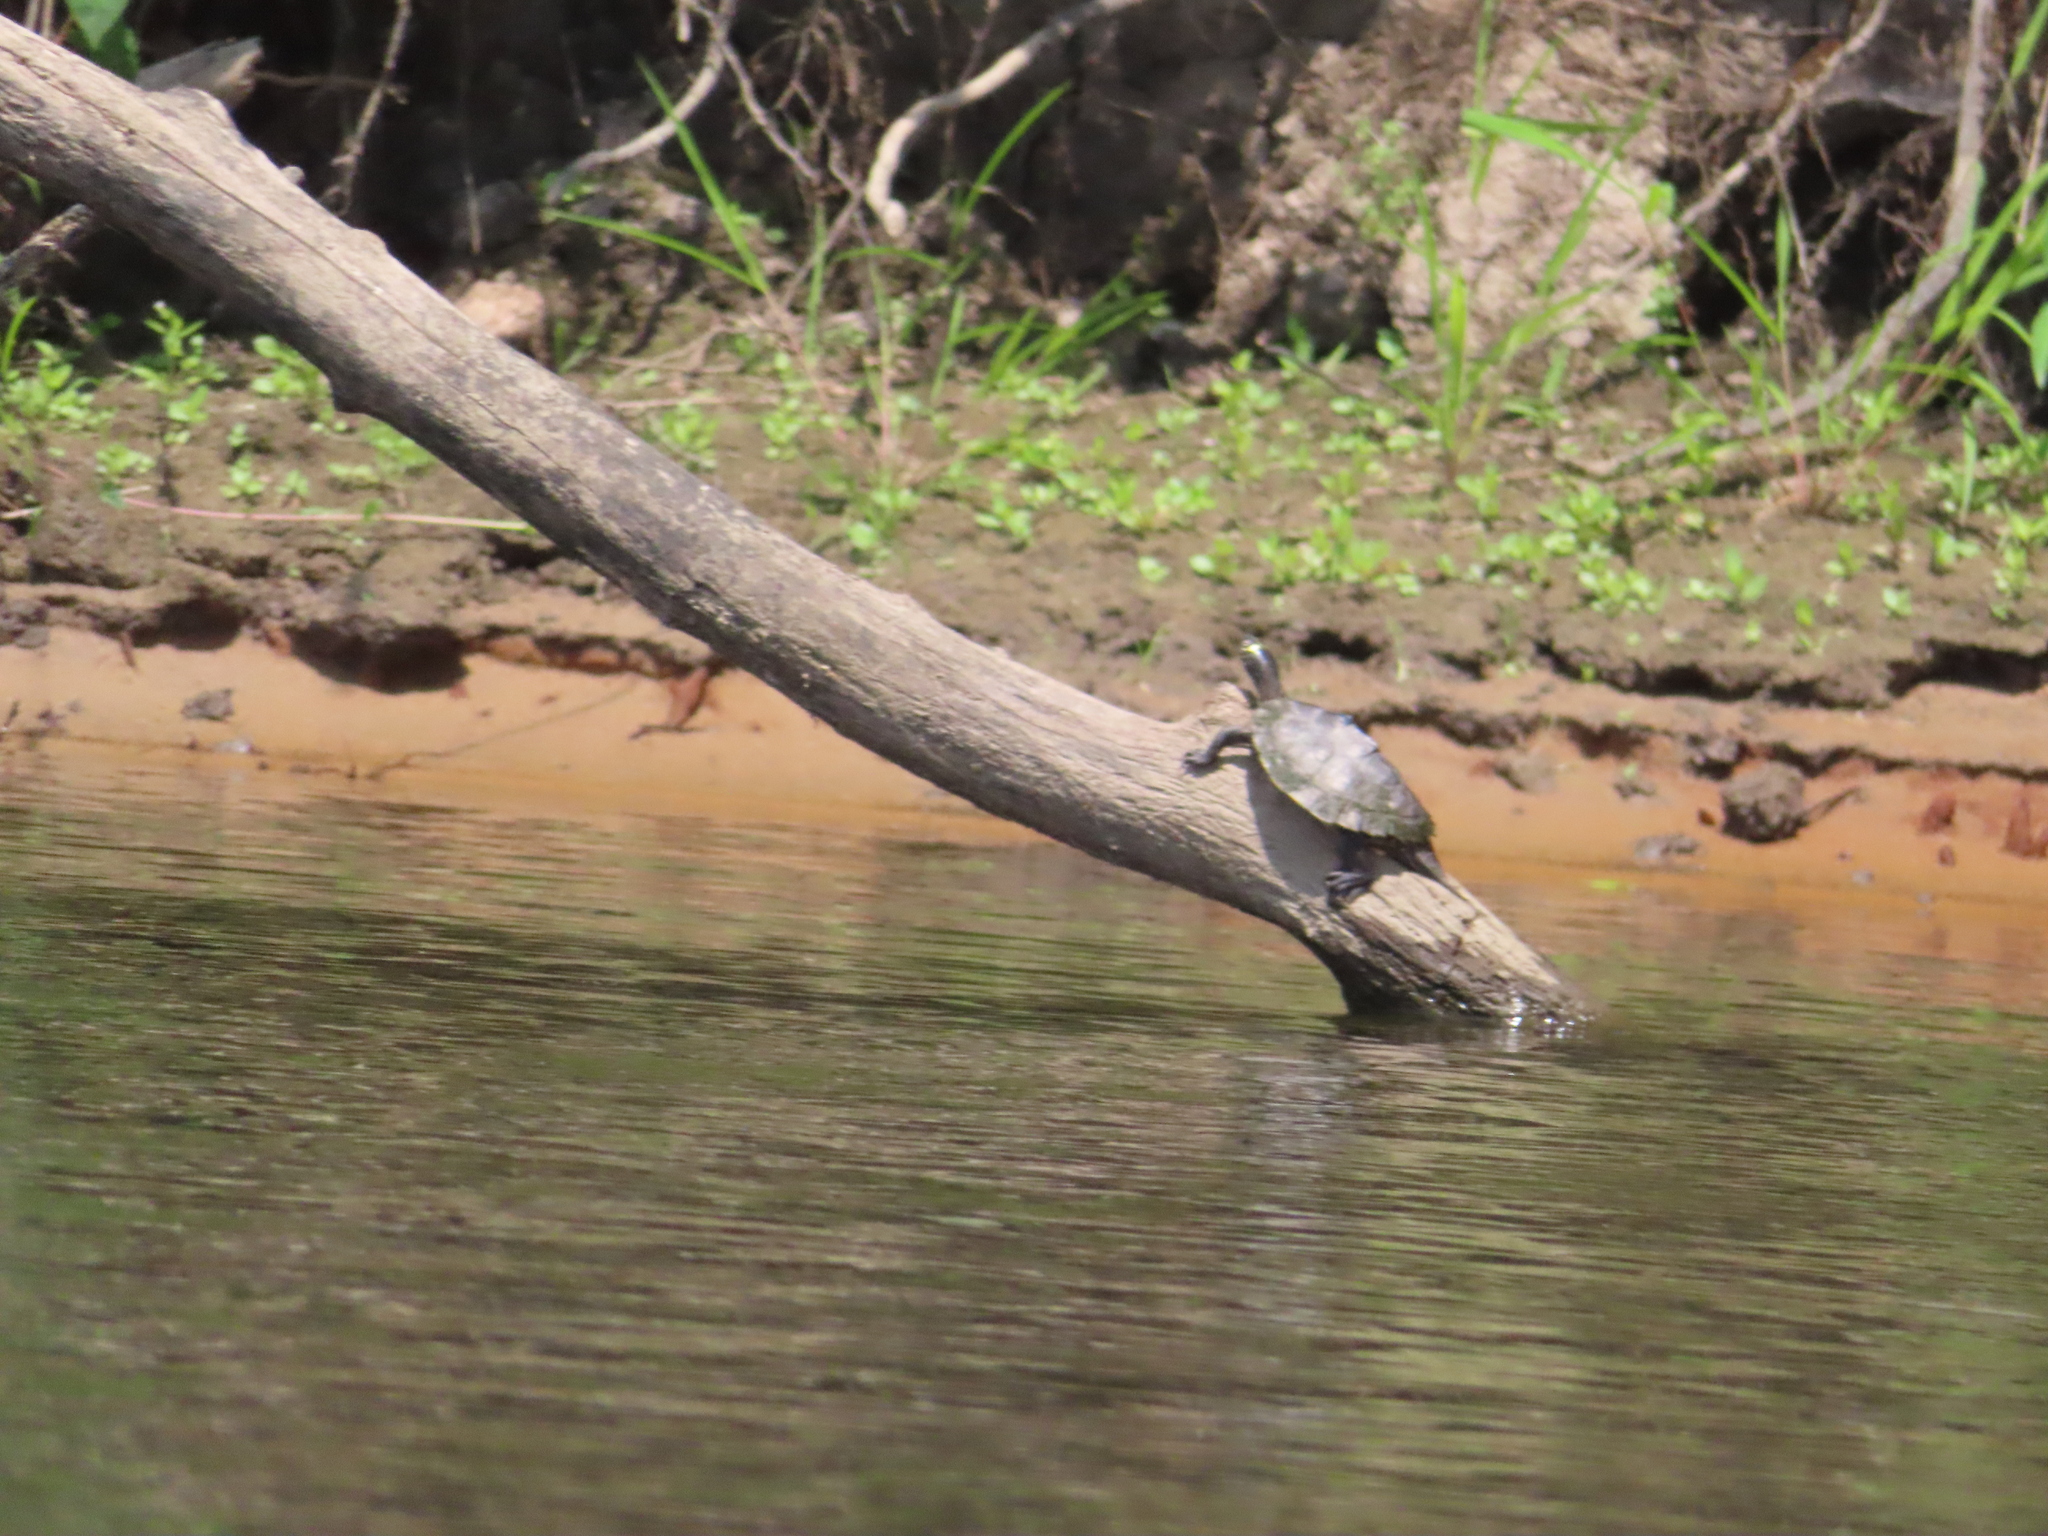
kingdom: Animalia
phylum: Chordata
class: Testudines
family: Emydidae
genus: Graptemys
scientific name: Graptemys ouachitensis
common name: Ouachita map turtle
